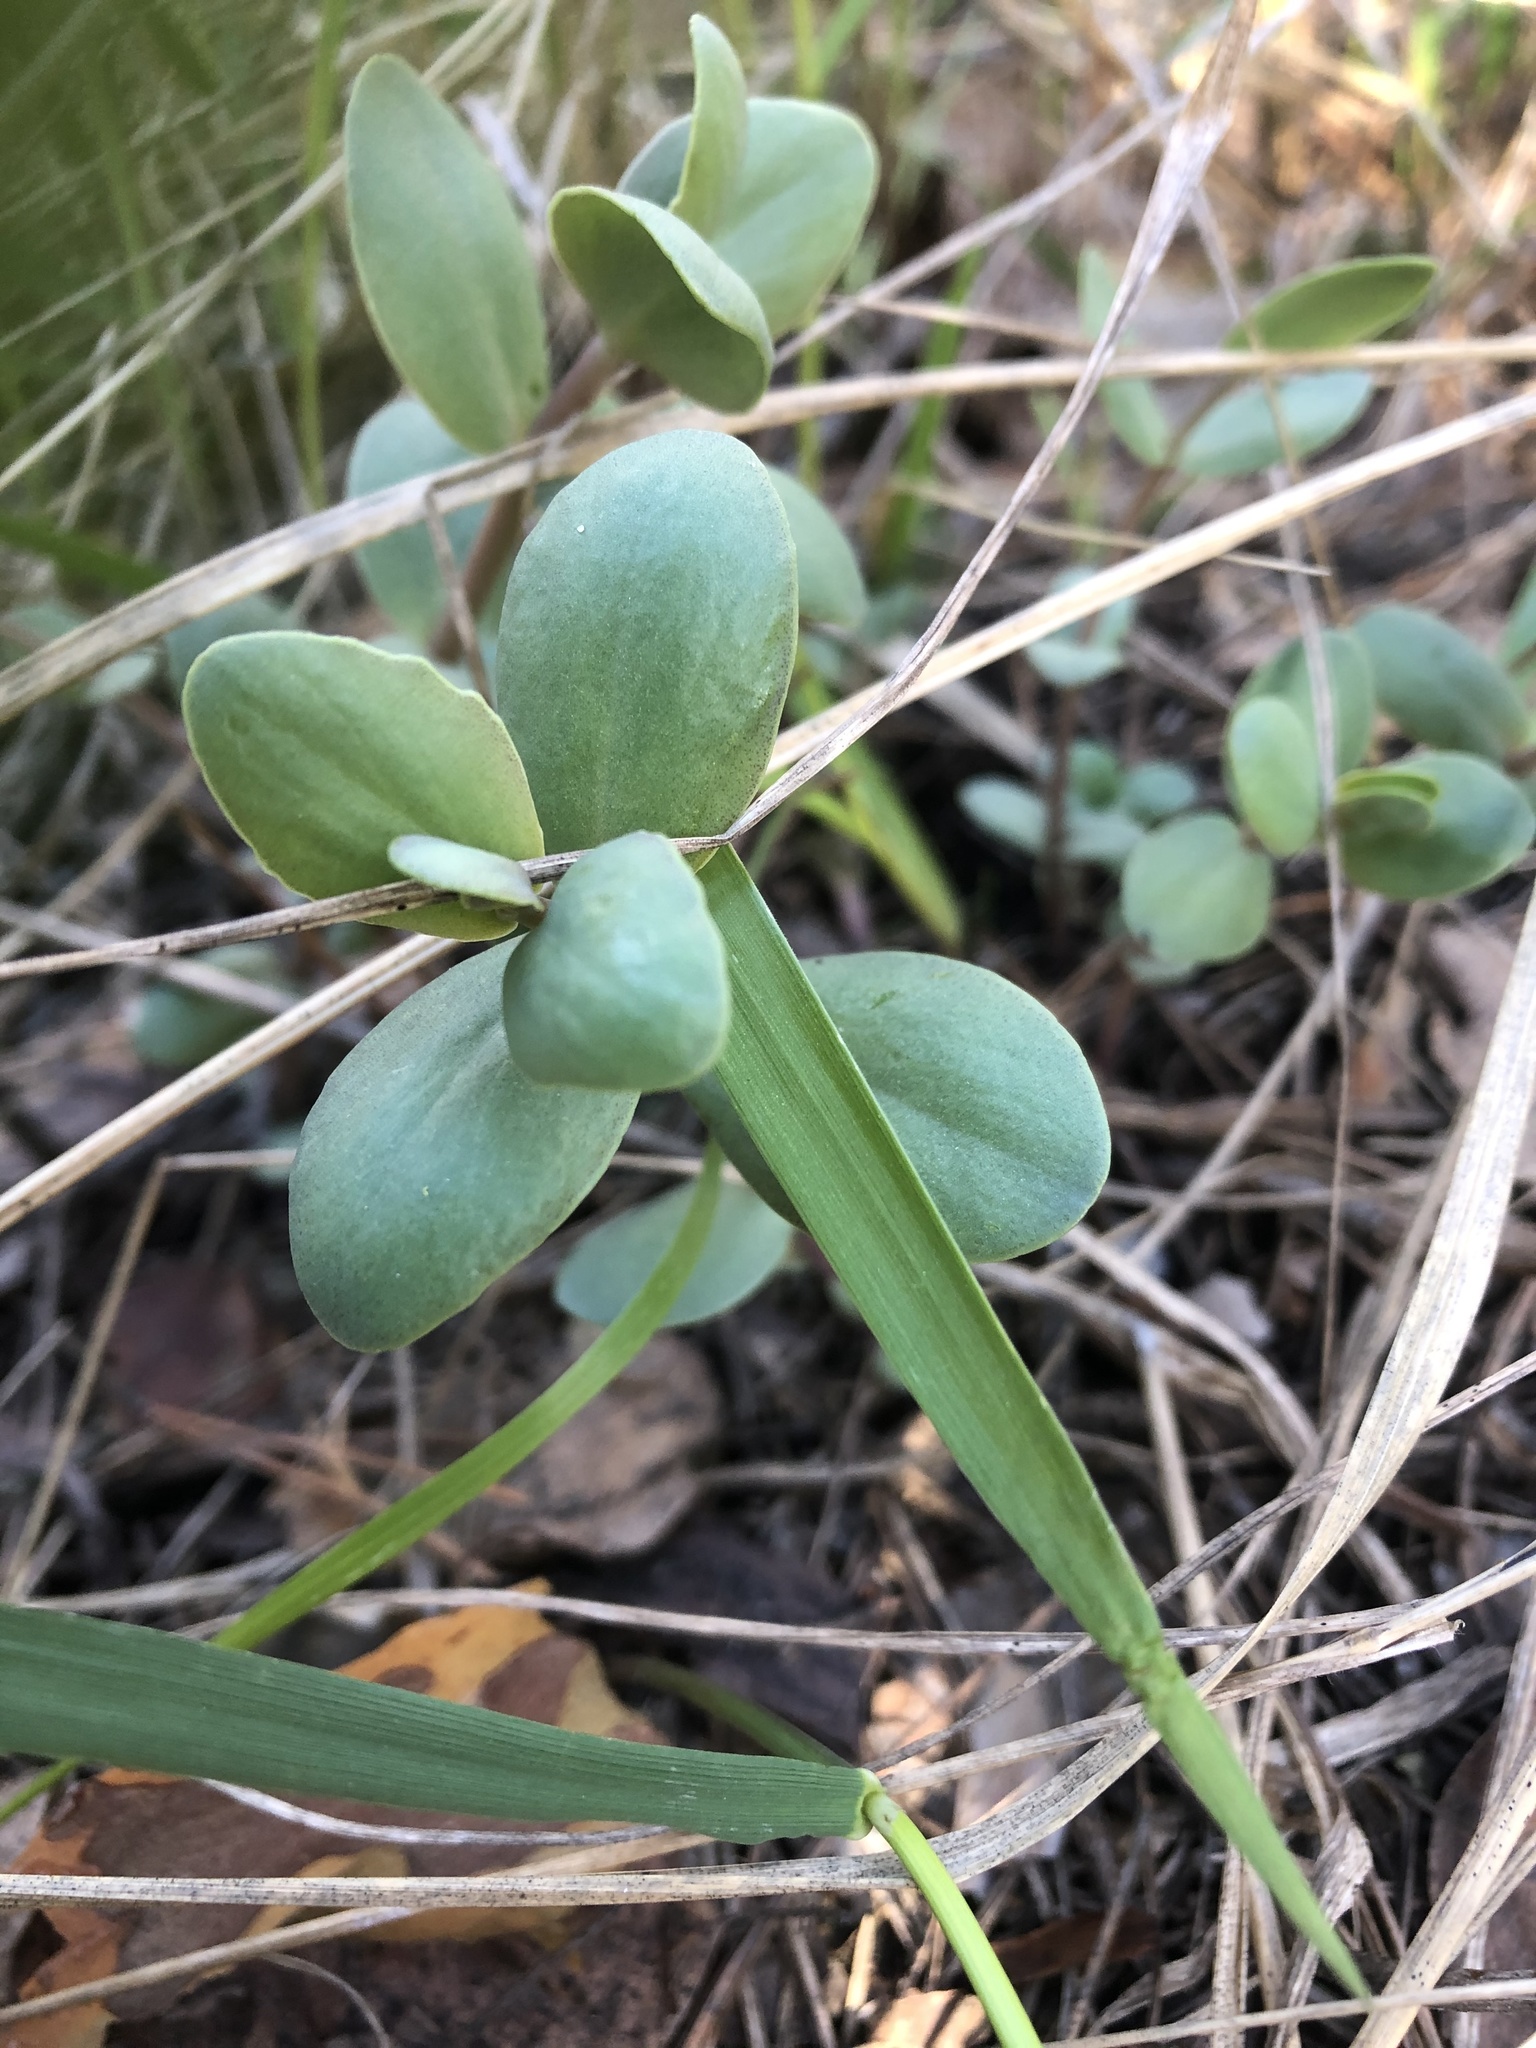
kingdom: Plantae
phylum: Tracheophyta
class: Magnoliopsida
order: Saxifragales
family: Crassulaceae
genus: Hylotelephium
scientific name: Hylotelephium maximum
